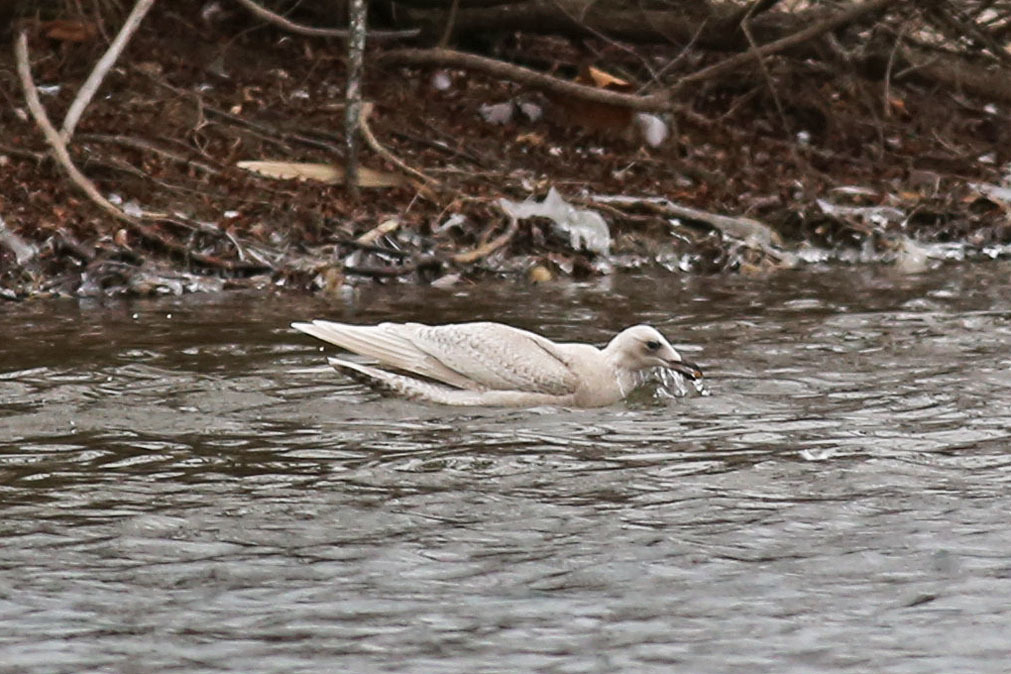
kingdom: Animalia
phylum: Chordata
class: Aves
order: Charadriiformes
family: Laridae
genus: Larus
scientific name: Larus glaucoides
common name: Iceland gull
